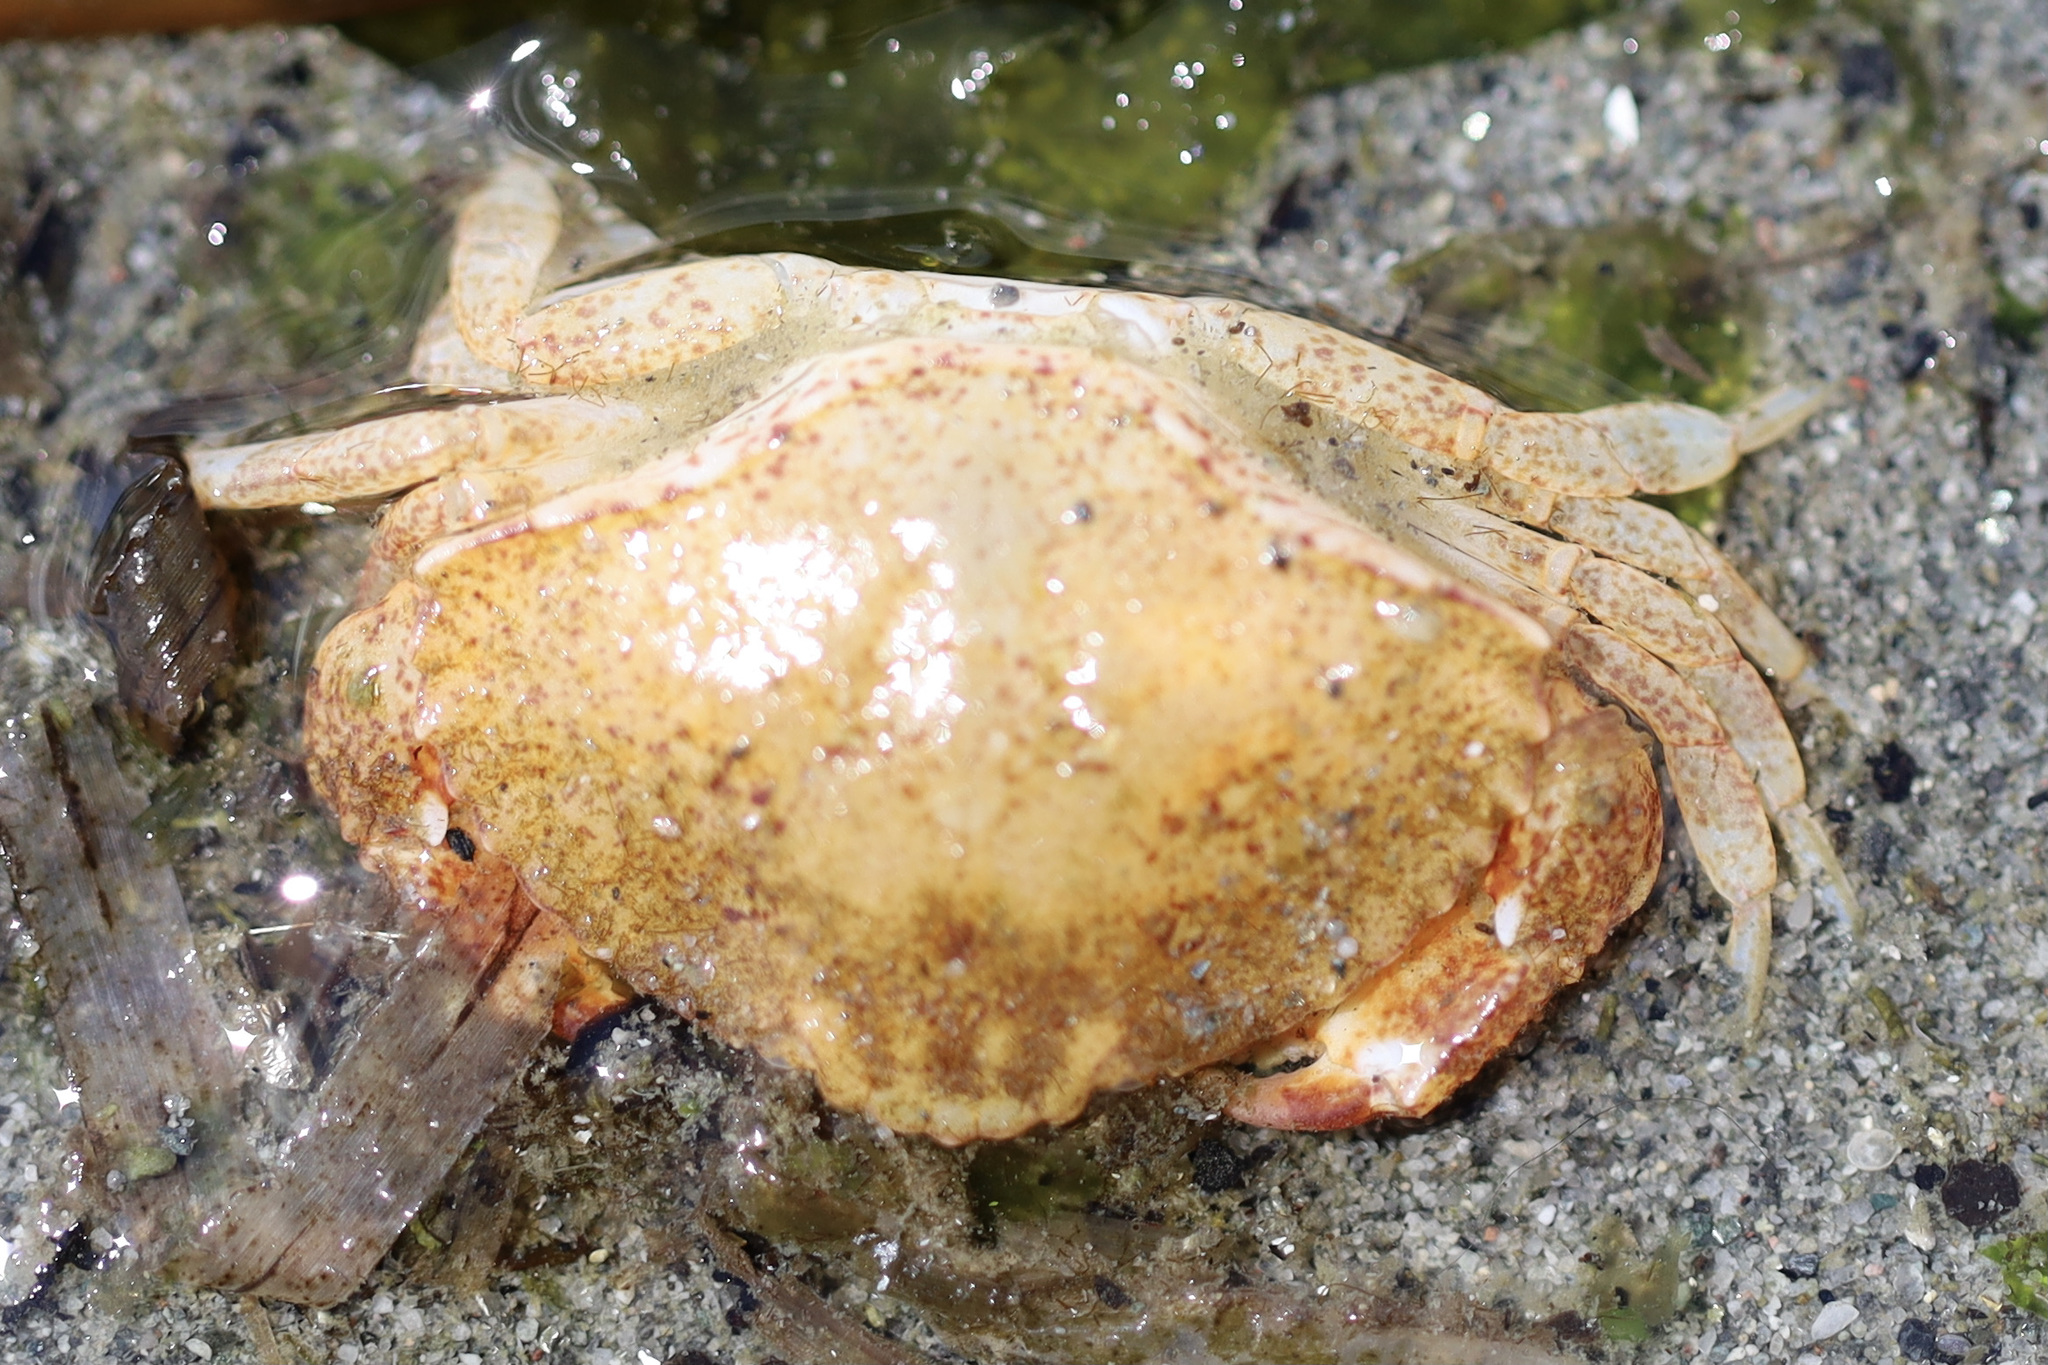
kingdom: Animalia
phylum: Arthropoda
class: Malacostraca
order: Decapoda
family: Cancridae
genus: Cancer
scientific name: Cancer productus
